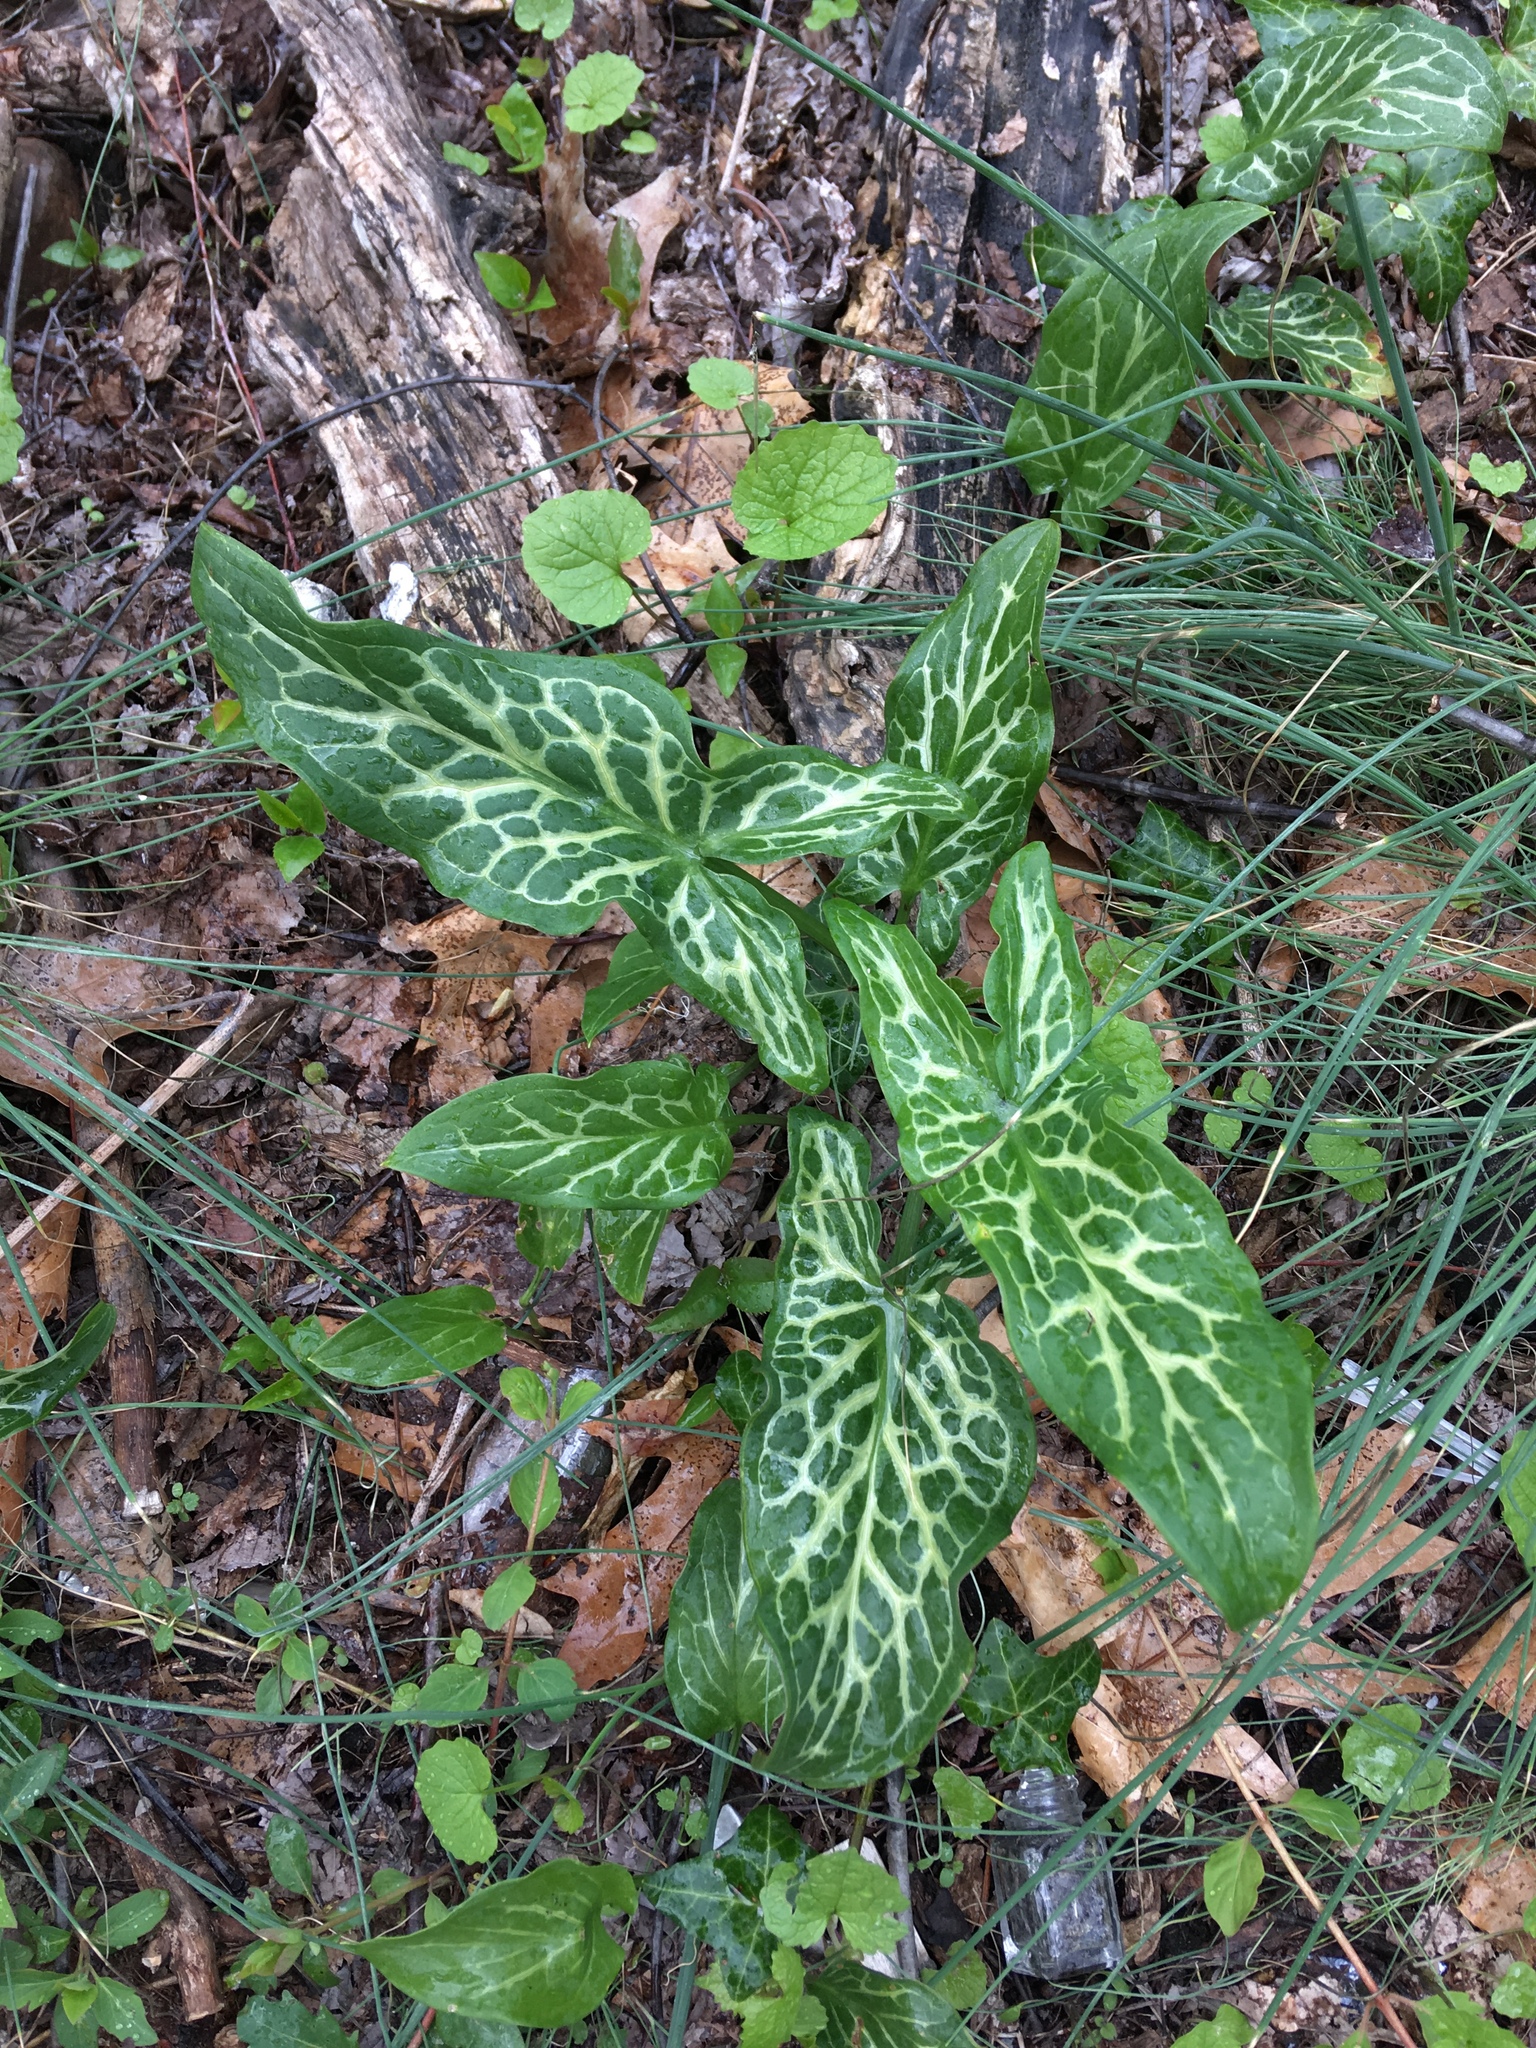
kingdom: Plantae
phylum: Tracheophyta
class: Liliopsida
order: Alismatales
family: Araceae
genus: Arum
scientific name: Arum italicum
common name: Italian lords-and-ladies
